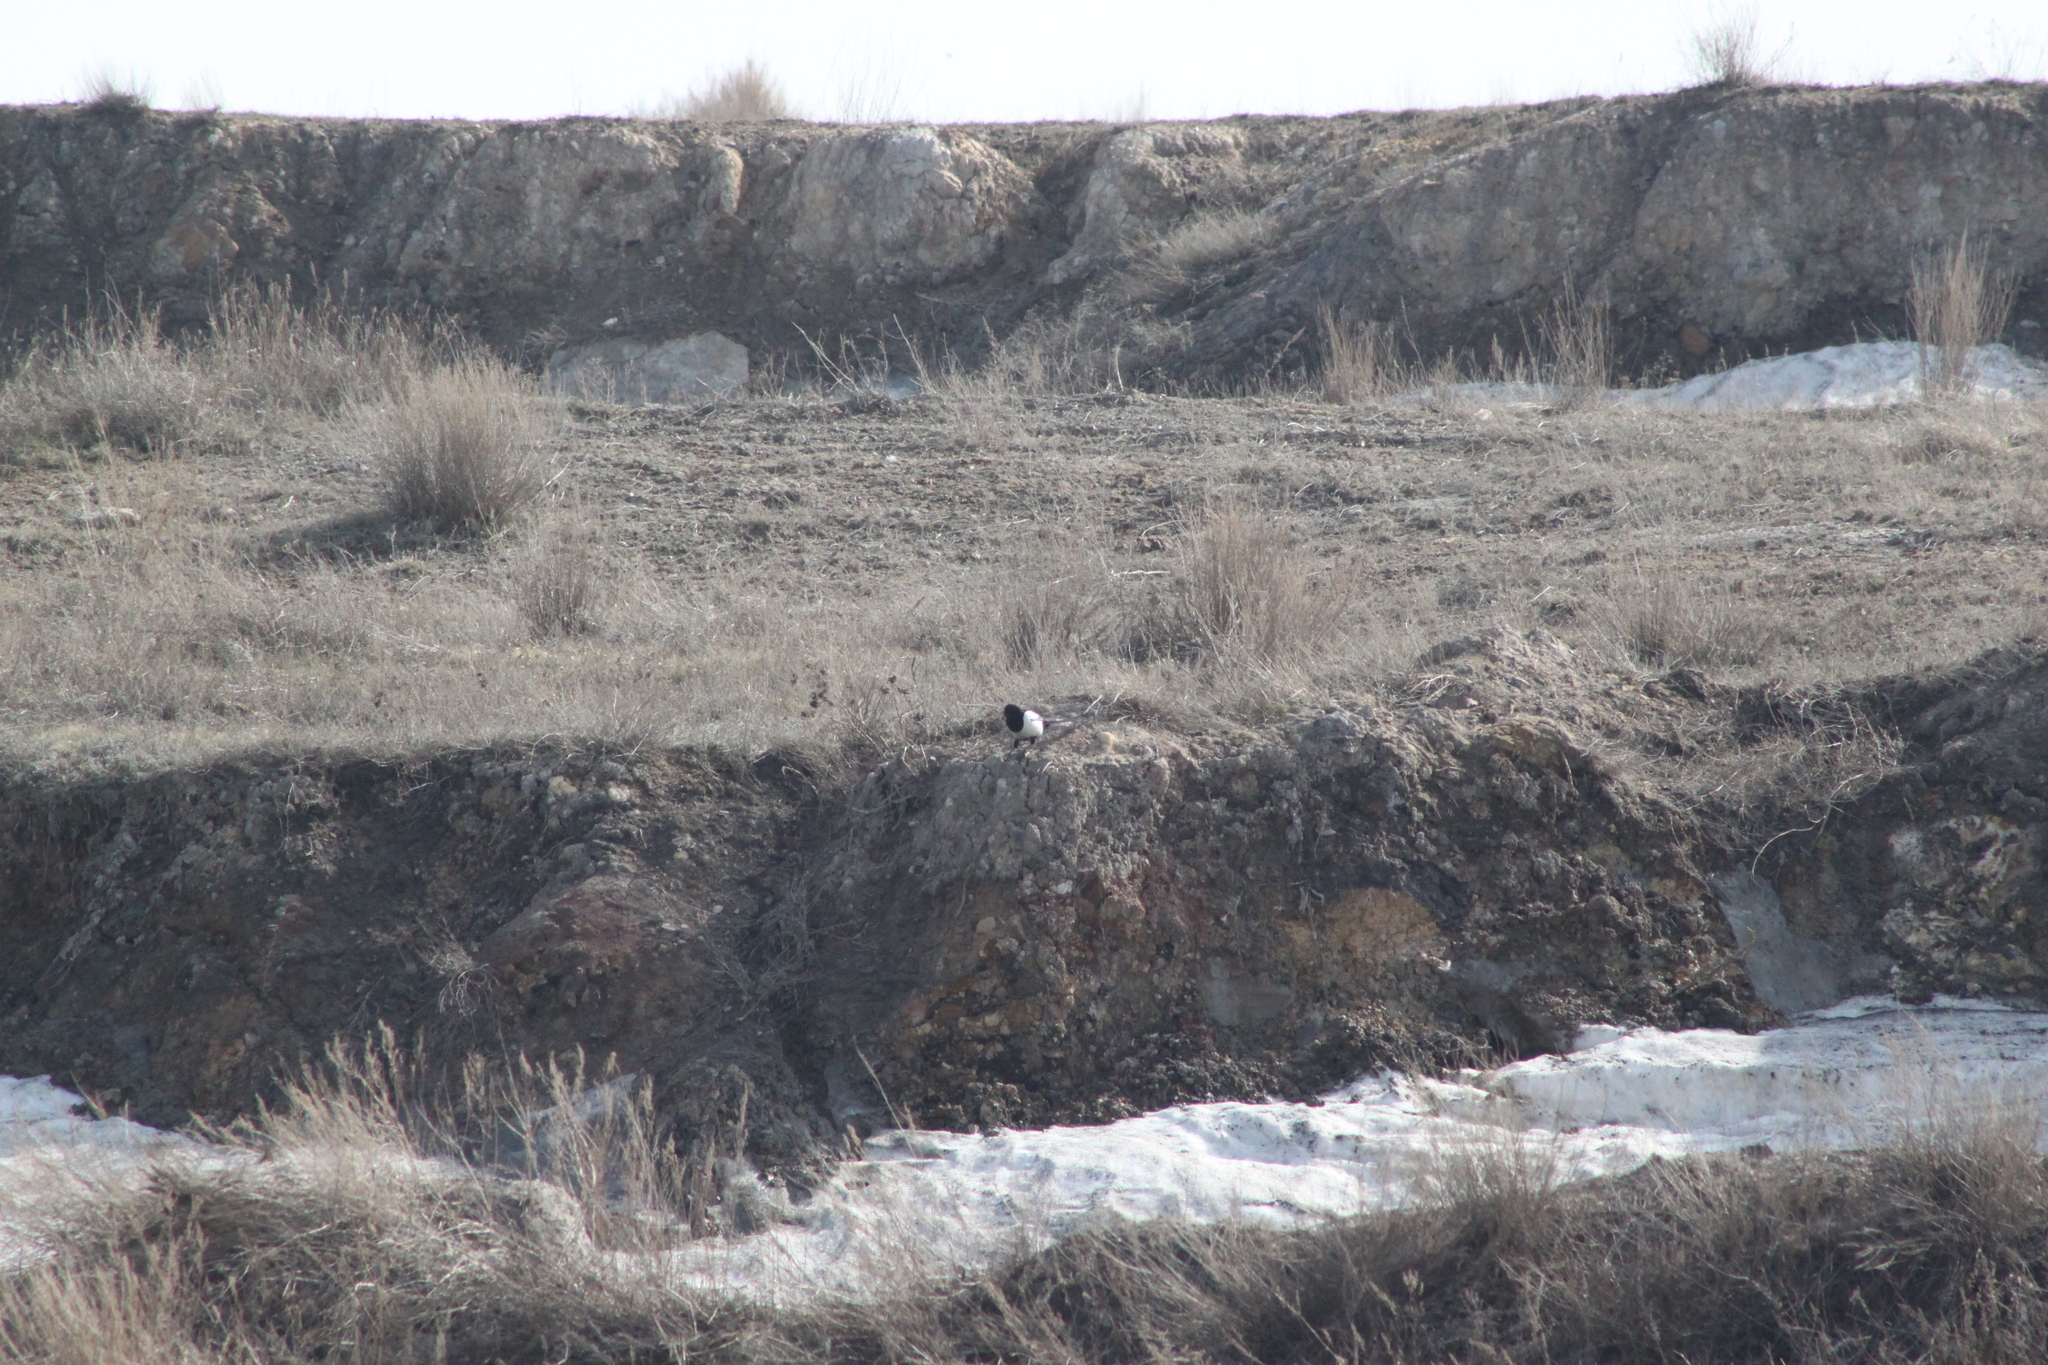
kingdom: Animalia
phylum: Chordata
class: Aves
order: Passeriformes
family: Corvidae
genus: Pica
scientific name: Pica pica
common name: Eurasian magpie
